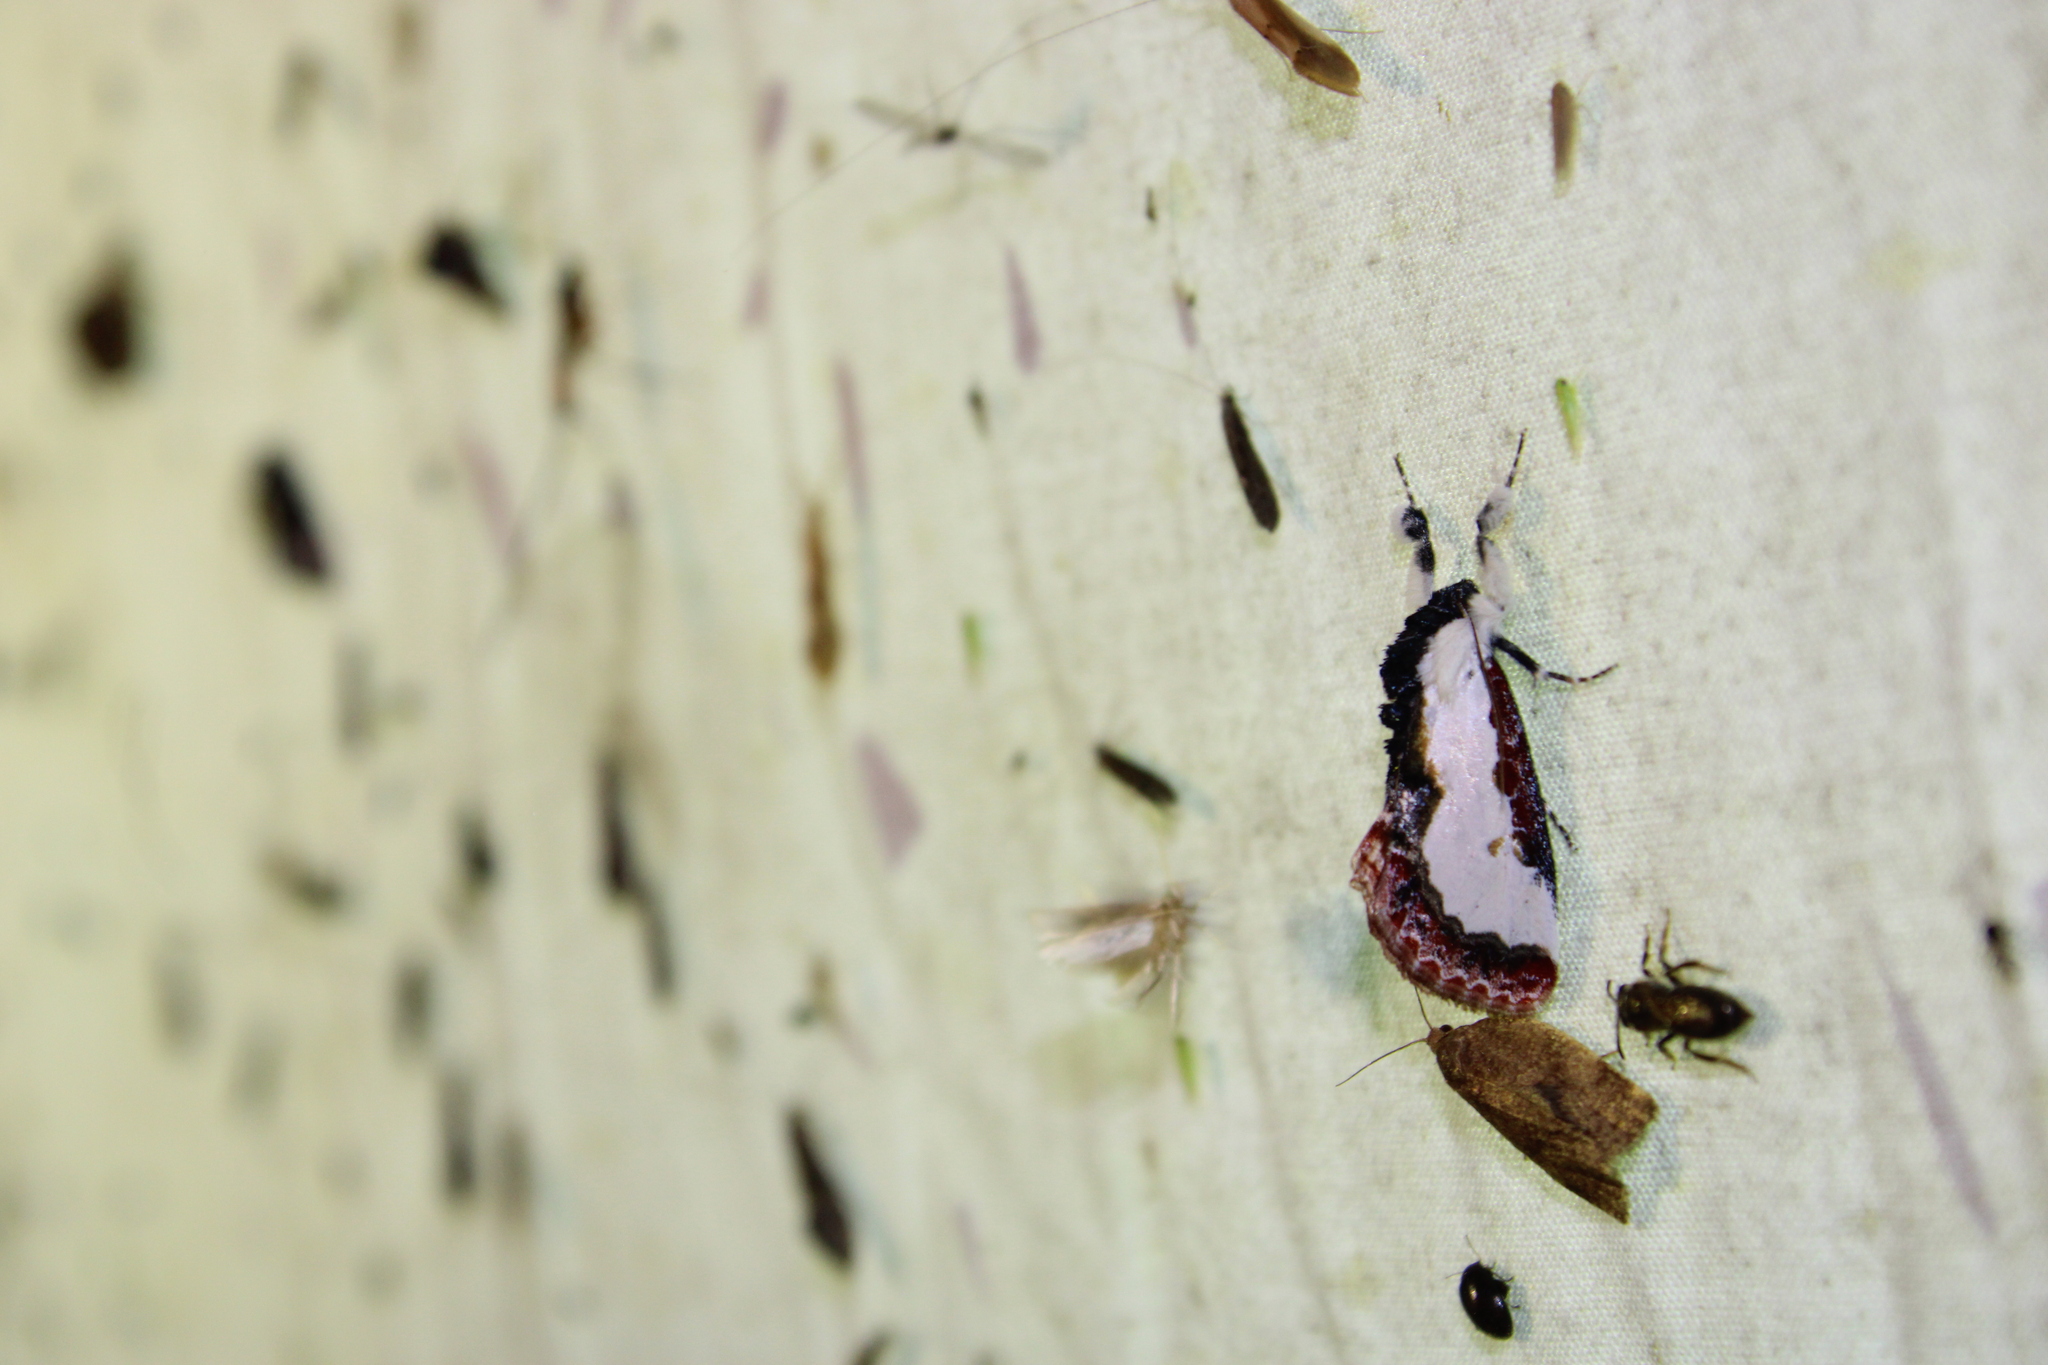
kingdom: Animalia
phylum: Arthropoda
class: Insecta
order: Lepidoptera
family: Noctuidae
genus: Eudryas
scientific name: Eudryas unio
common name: Pearly wood-nymph
